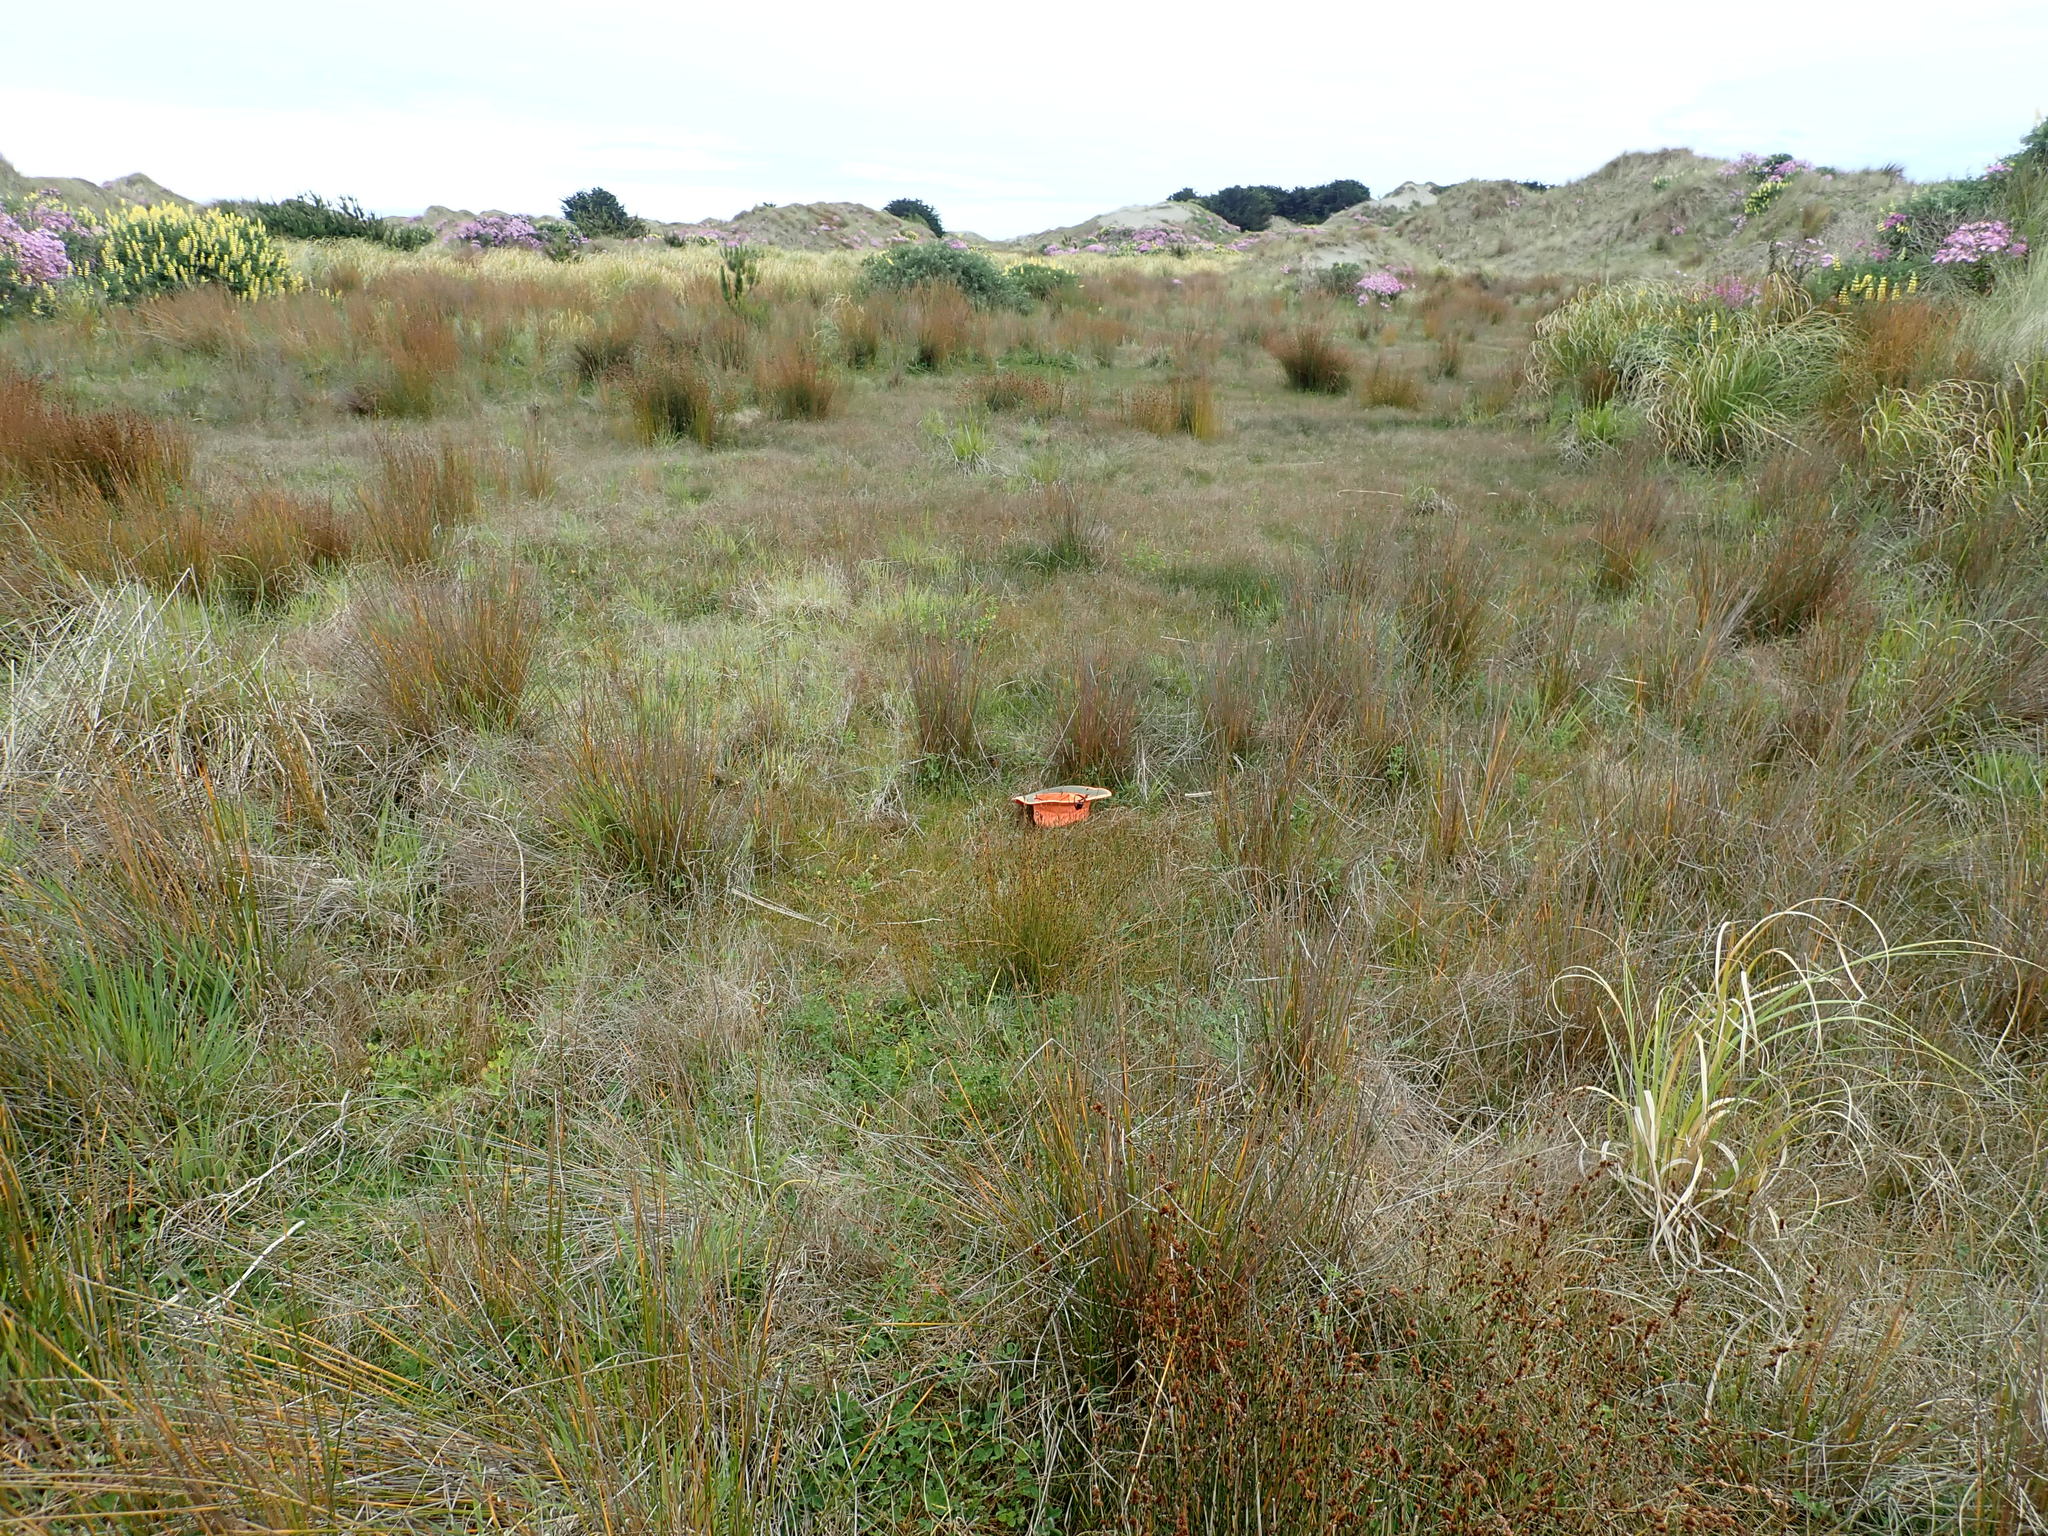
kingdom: Plantae
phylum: Tracheophyta
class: Liliopsida
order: Poales
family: Cyperaceae
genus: Ficinia
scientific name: Ficinia nodosa
